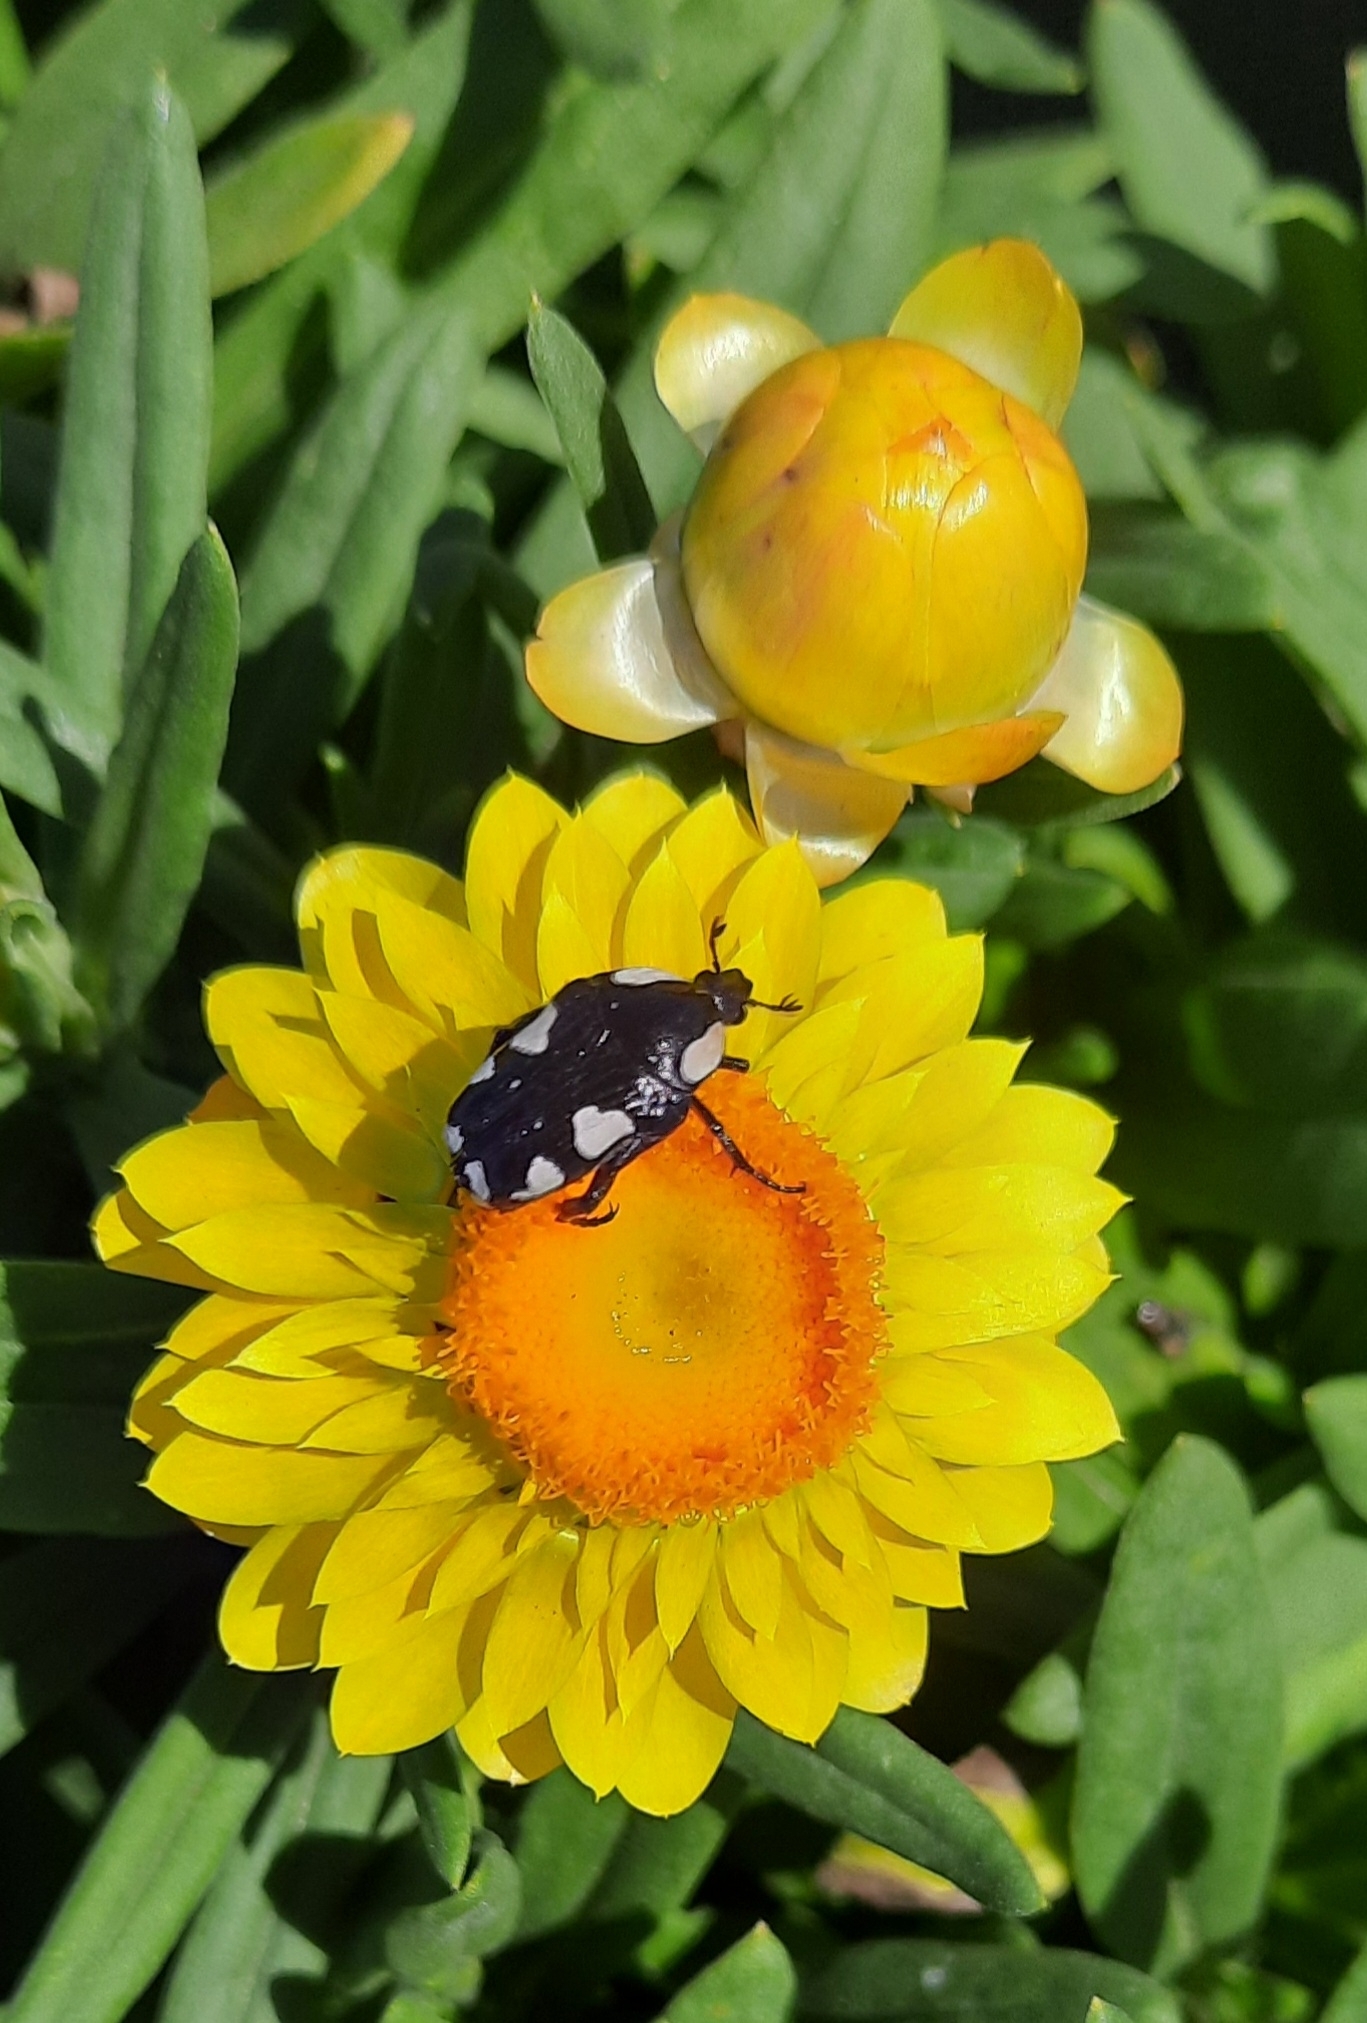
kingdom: Animalia
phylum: Arthropoda
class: Insecta
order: Coleoptera
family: Scarabaeidae
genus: Mausoleopsis
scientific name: Mausoleopsis amabilis
